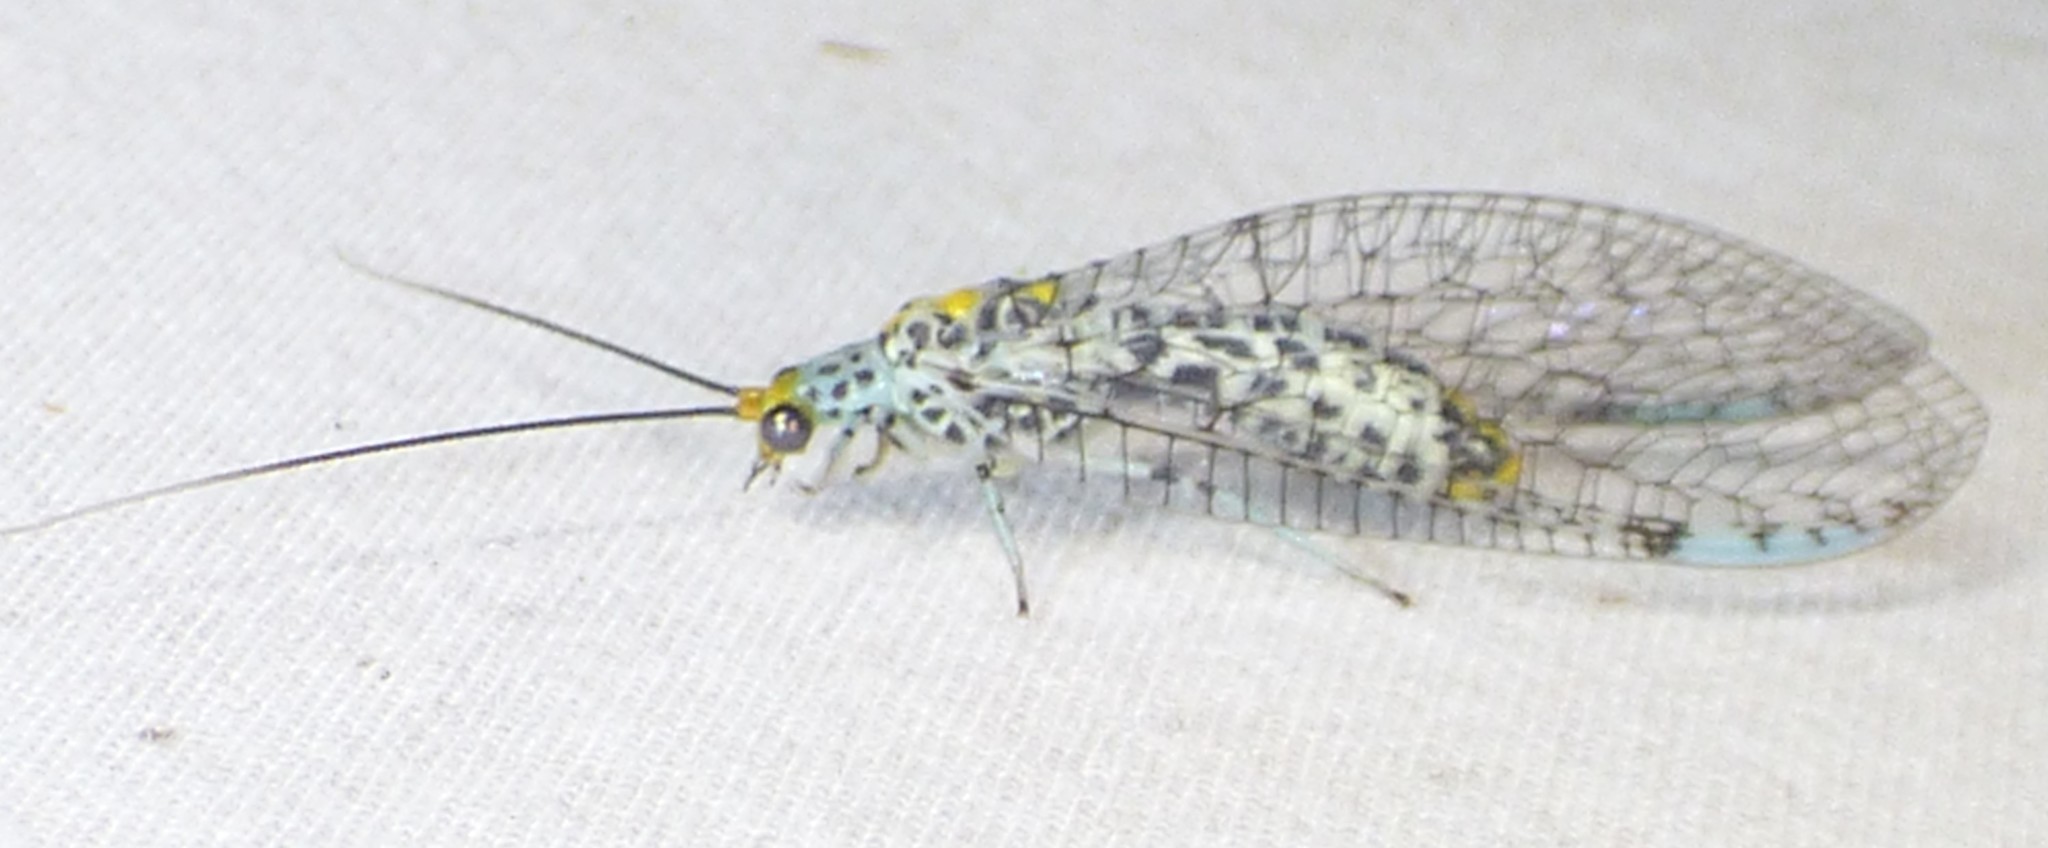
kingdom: Animalia
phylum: Arthropoda
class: Insecta
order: Neuroptera
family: Chrysopidae
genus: Abachrysa
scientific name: Abachrysa eureka
